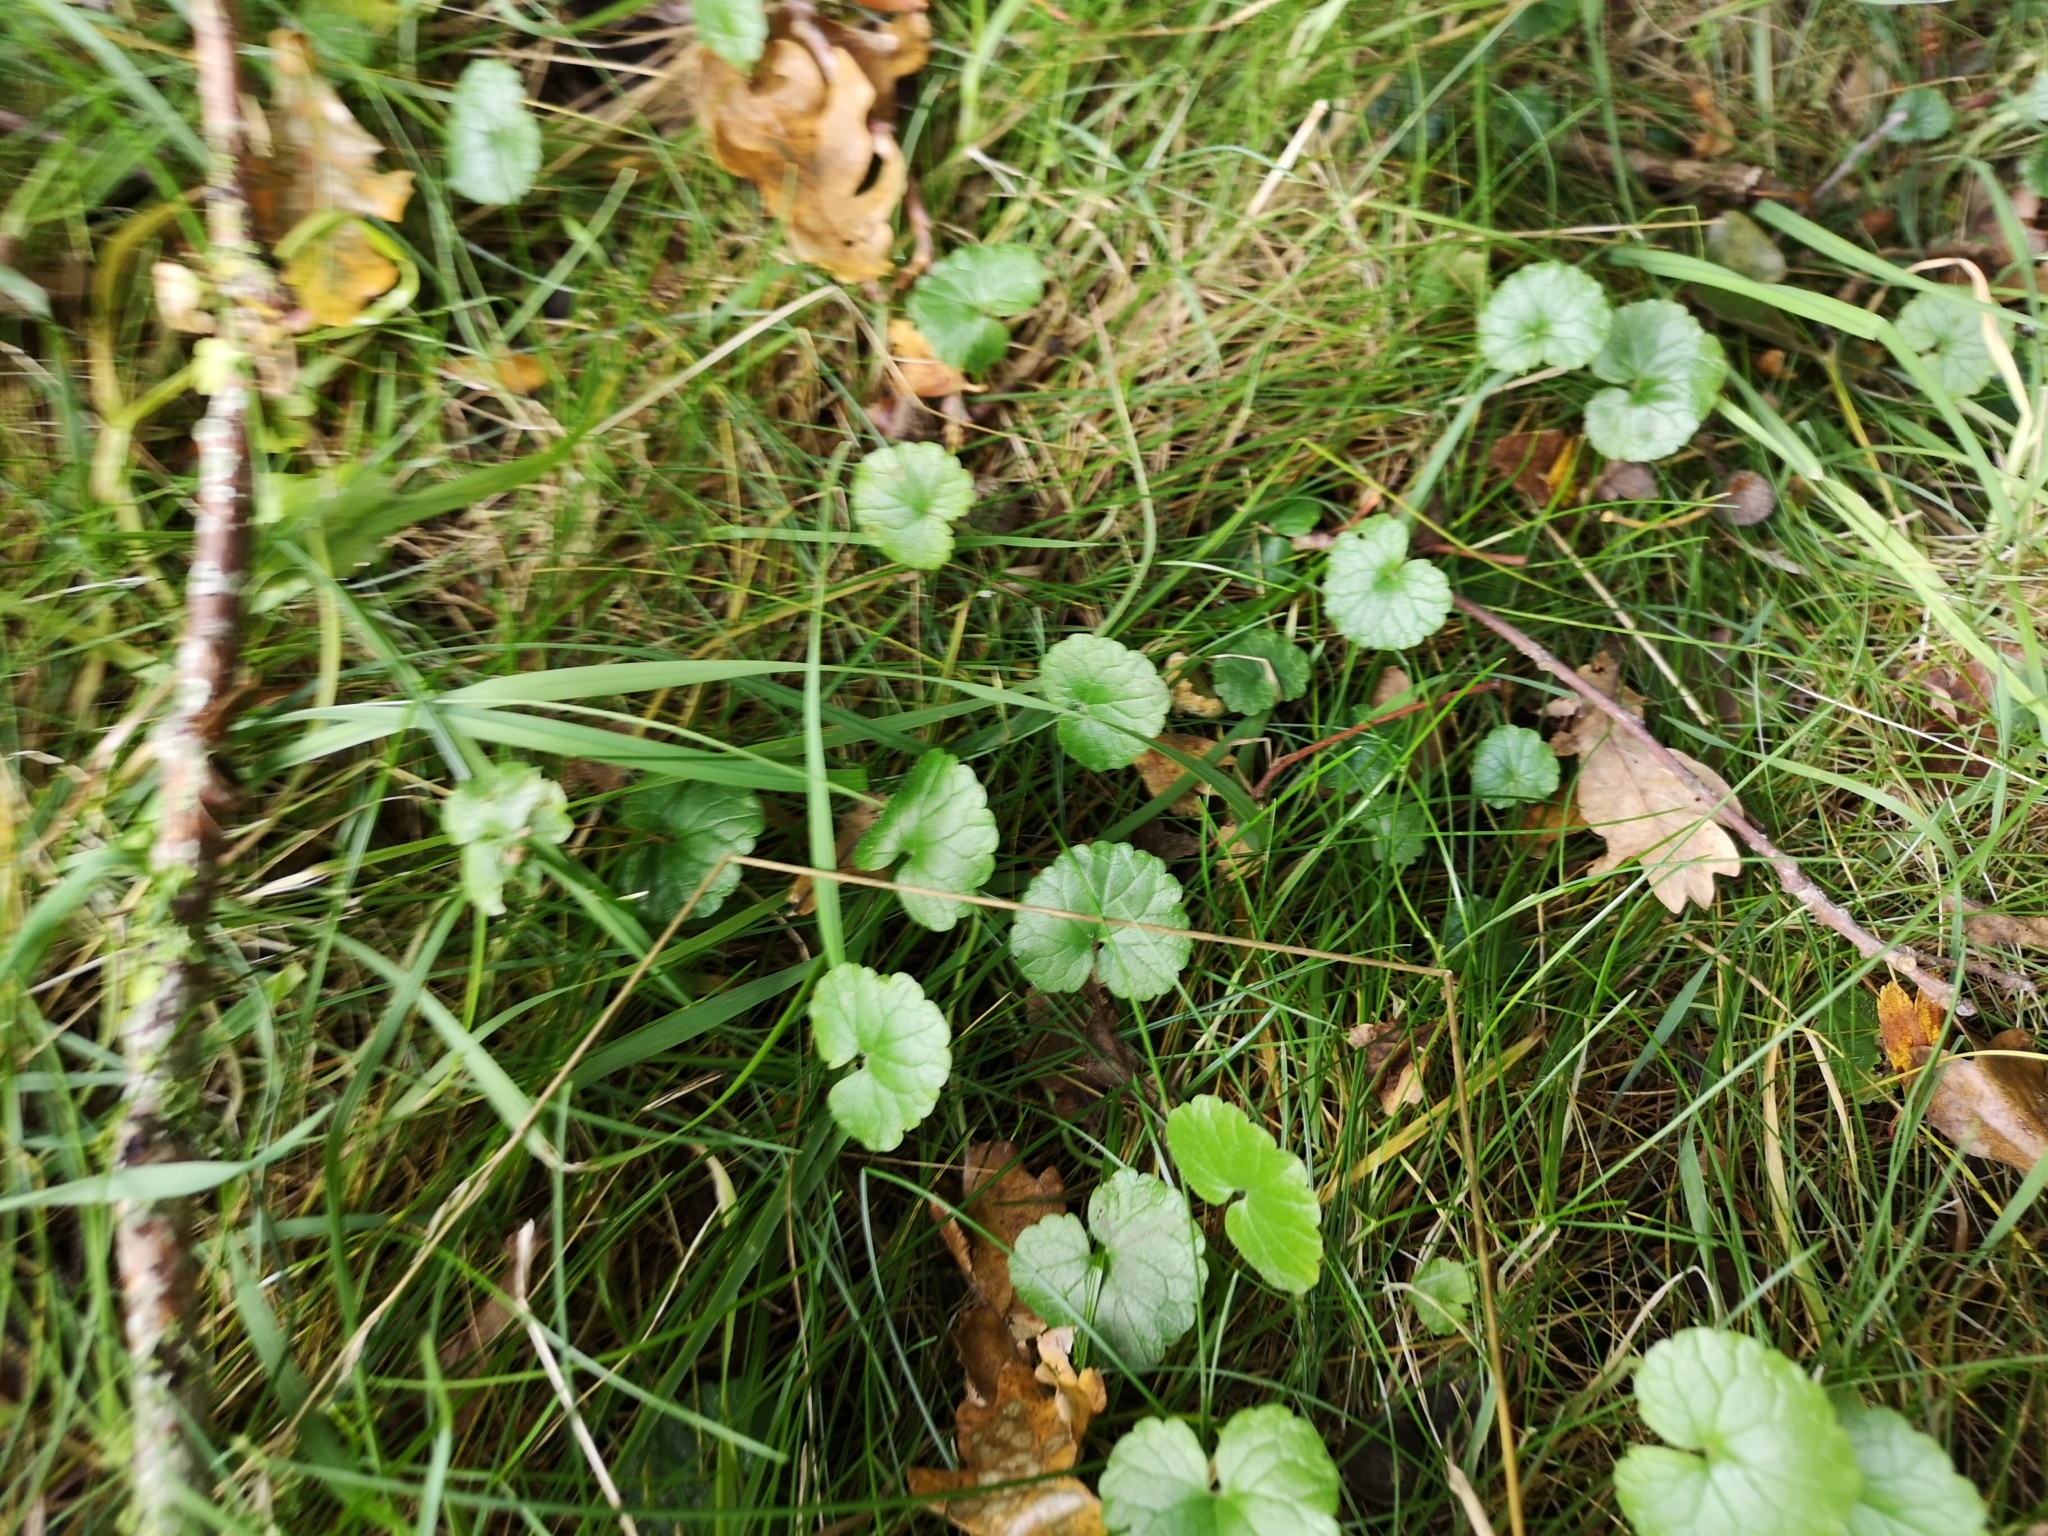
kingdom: Plantae
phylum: Tracheophyta
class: Magnoliopsida
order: Lamiales
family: Lamiaceae
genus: Glechoma
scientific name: Glechoma hederacea
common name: Ground ivy
